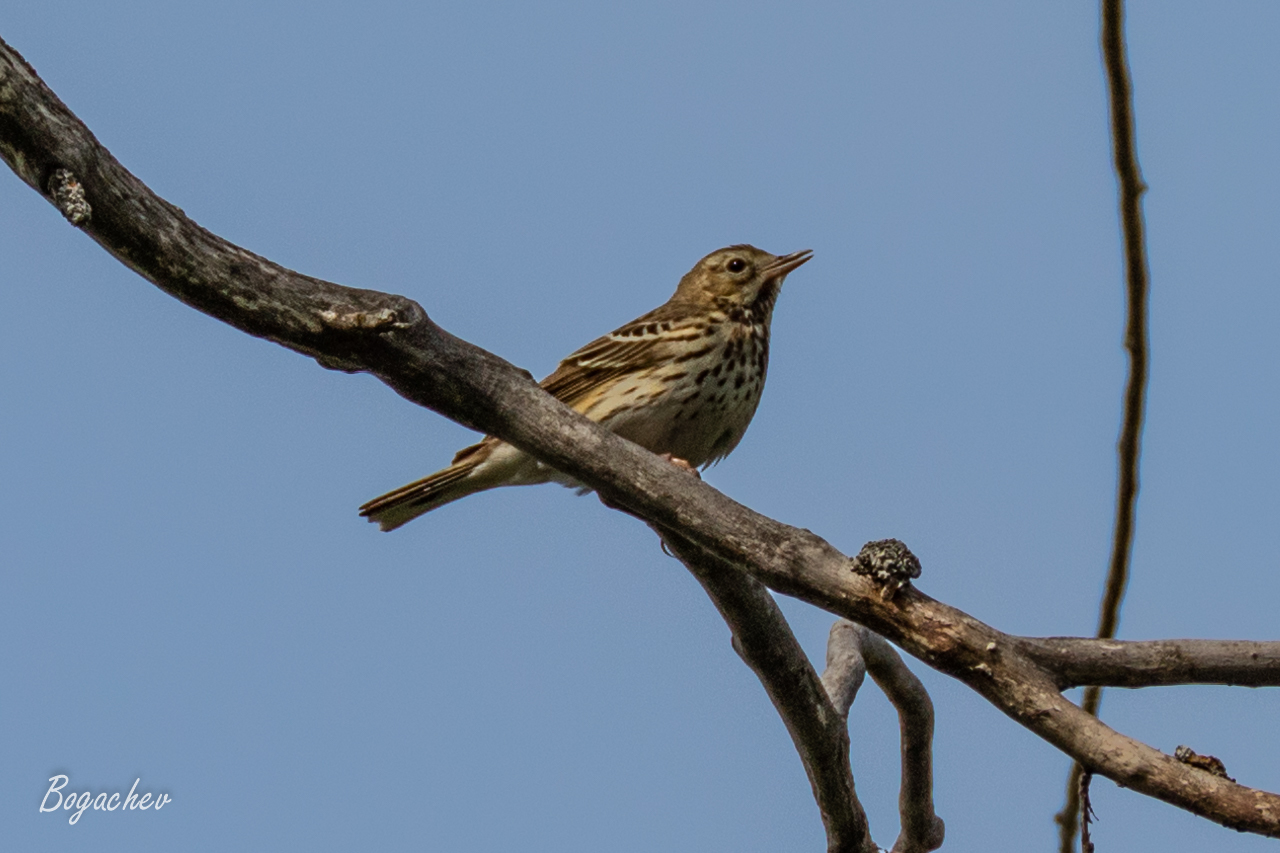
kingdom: Animalia
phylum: Chordata
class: Aves
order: Passeriformes
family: Motacillidae
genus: Anthus
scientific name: Anthus trivialis
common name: Tree pipit
